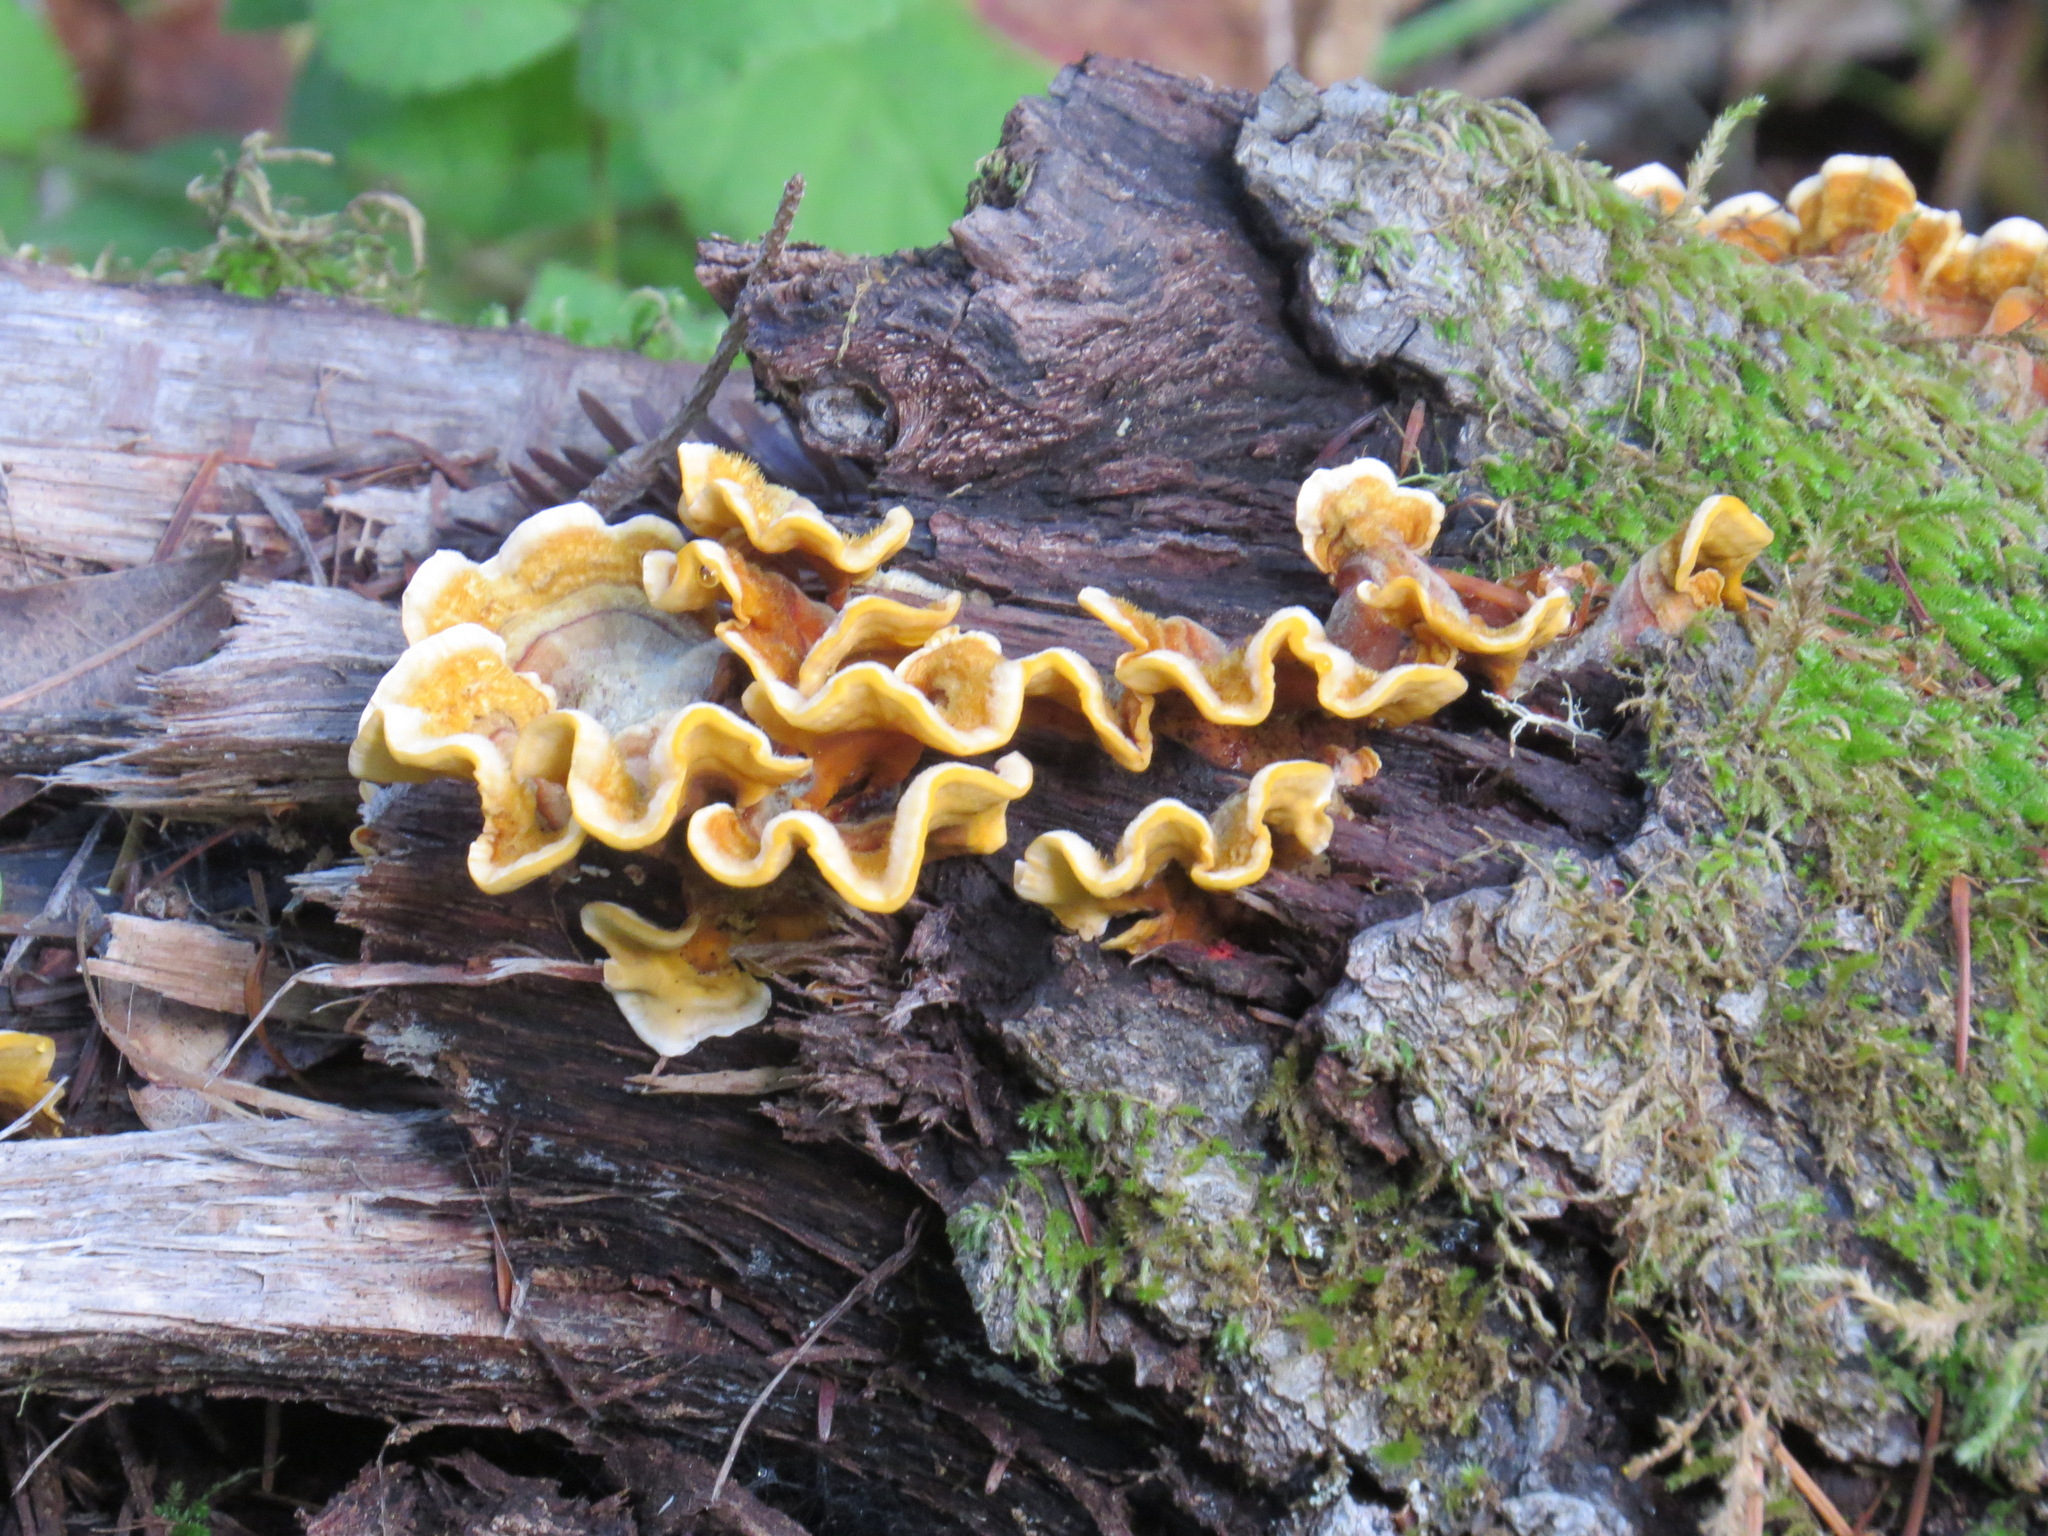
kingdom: Fungi
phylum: Basidiomycota
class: Agaricomycetes
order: Russulales
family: Stereaceae
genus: Stereum
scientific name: Stereum hirsutum
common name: Hairy curtain crust
